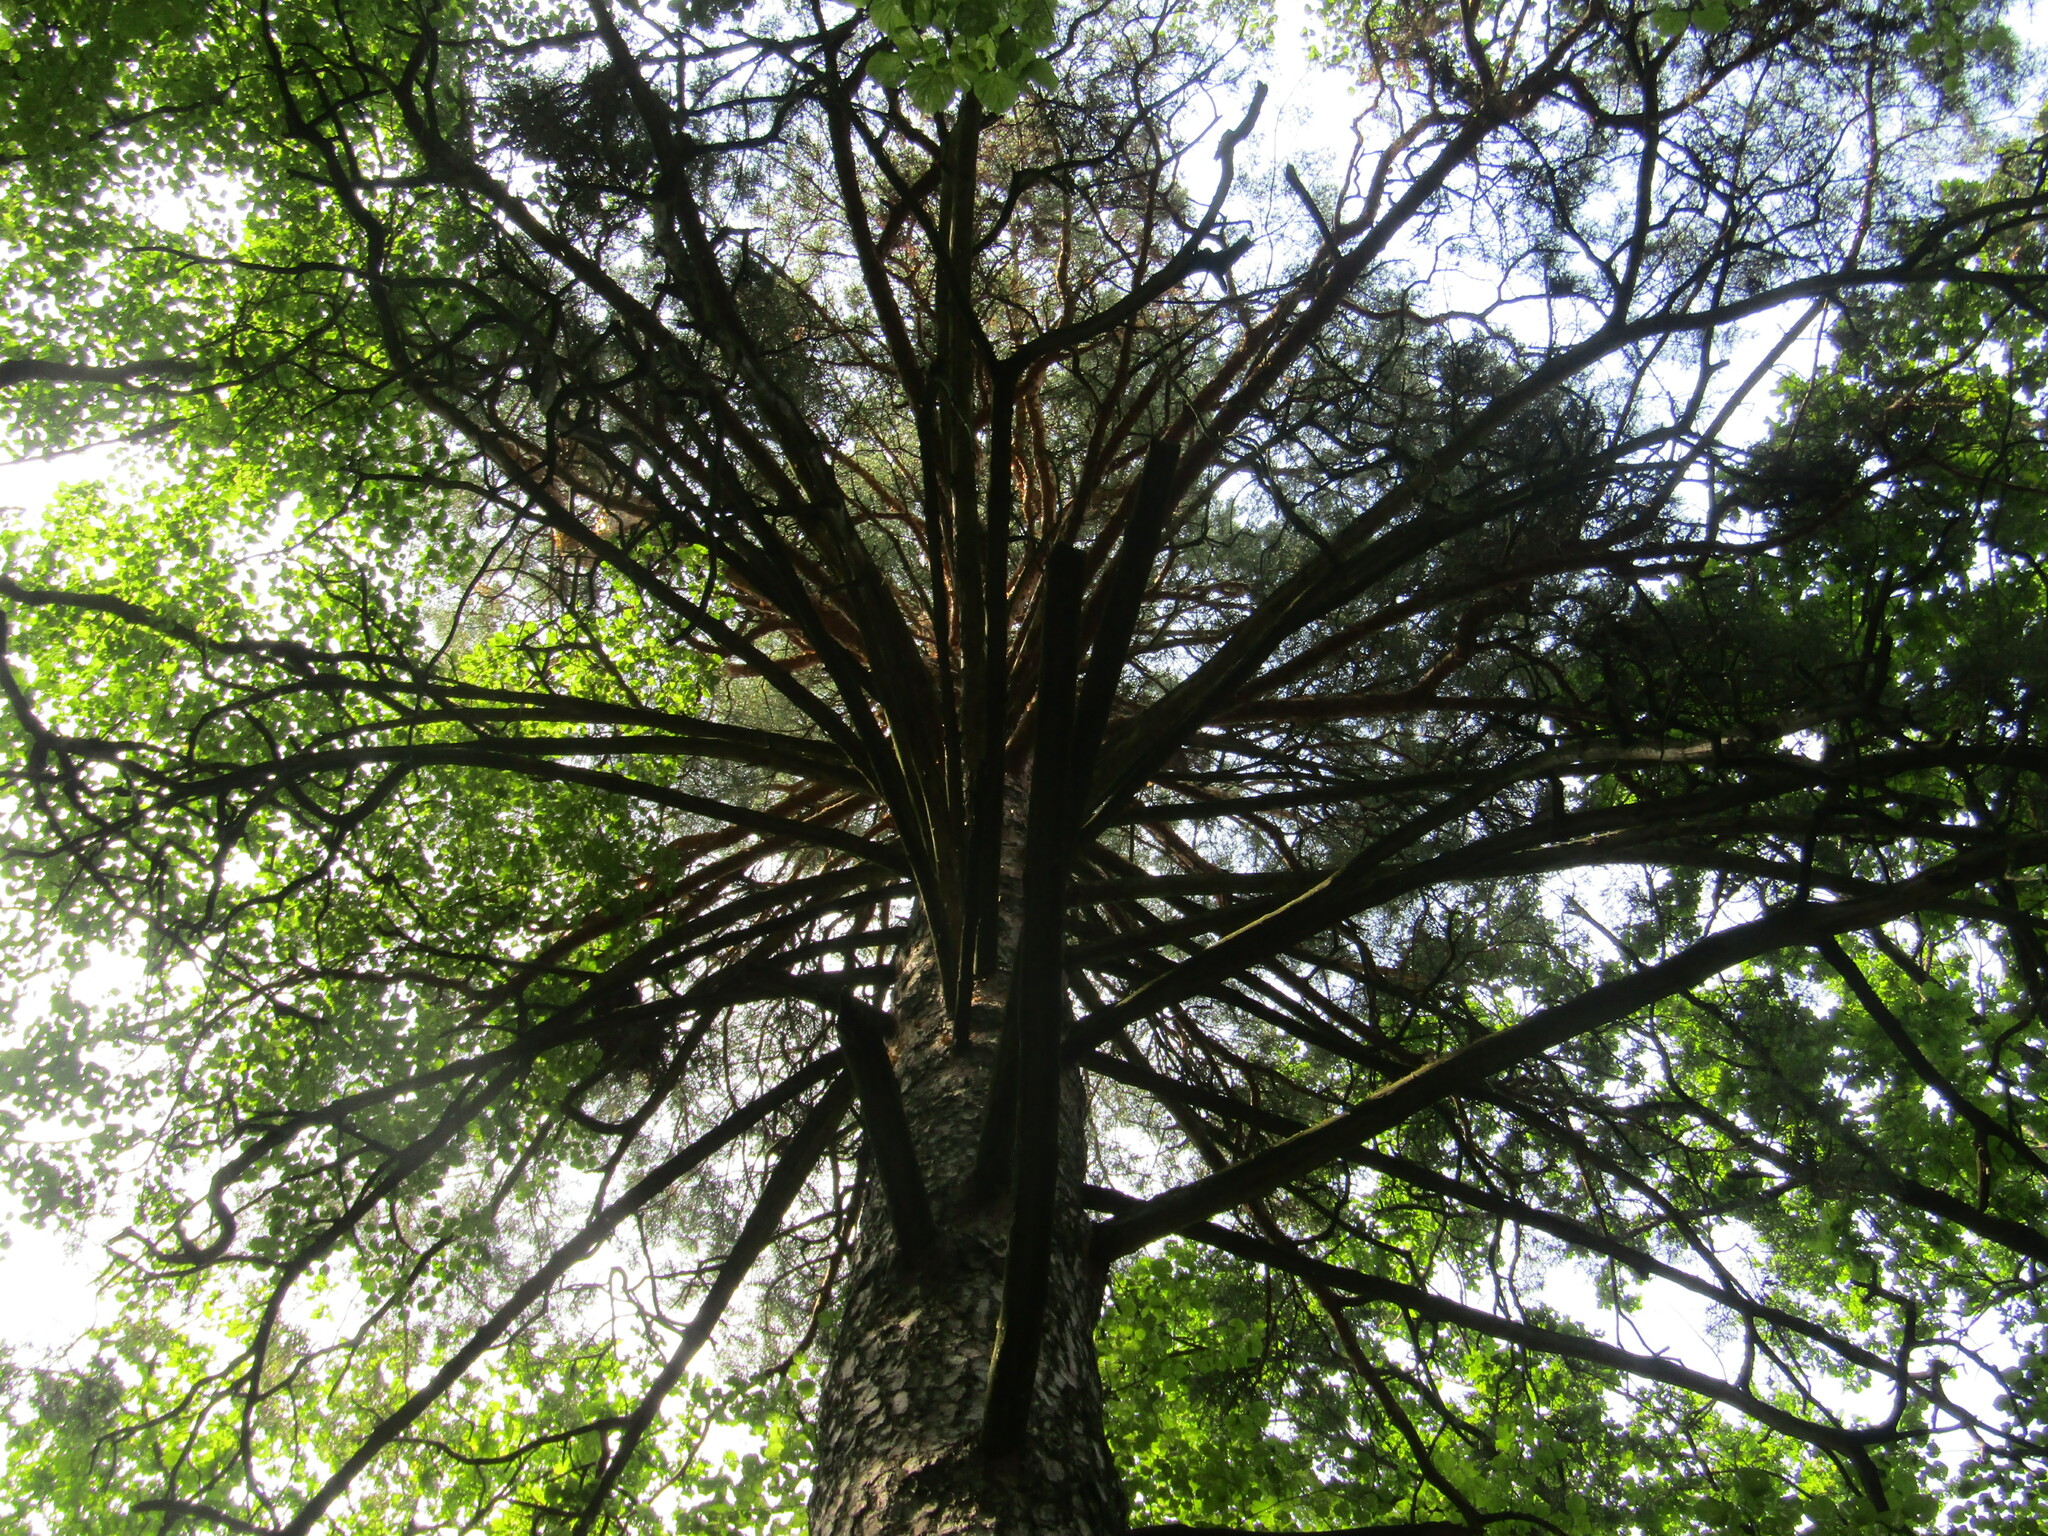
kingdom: Plantae
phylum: Tracheophyta
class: Pinopsida
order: Pinales
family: Pinaceae
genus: Pinus
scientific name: Pinus sylvestris
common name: Scots pine
